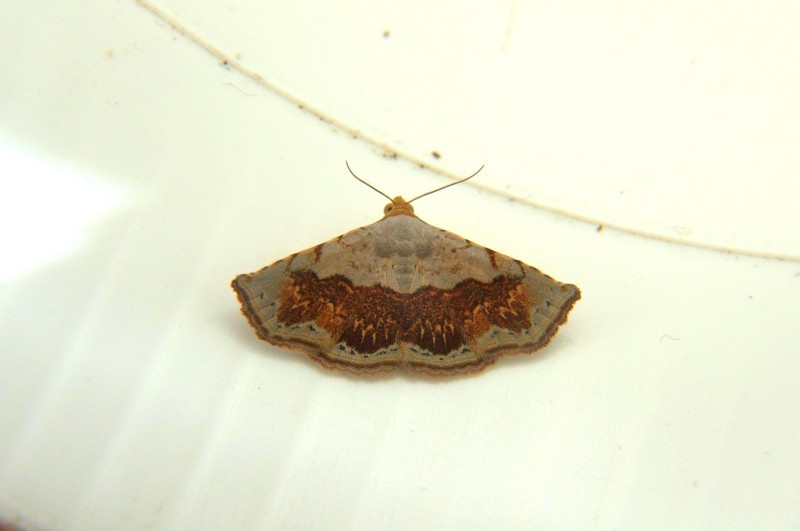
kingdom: Animalia
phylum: Arthropoda
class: Insecta
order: Lepidoptera
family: Noctuidae
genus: Eublemma
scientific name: Eublemma semirufa
